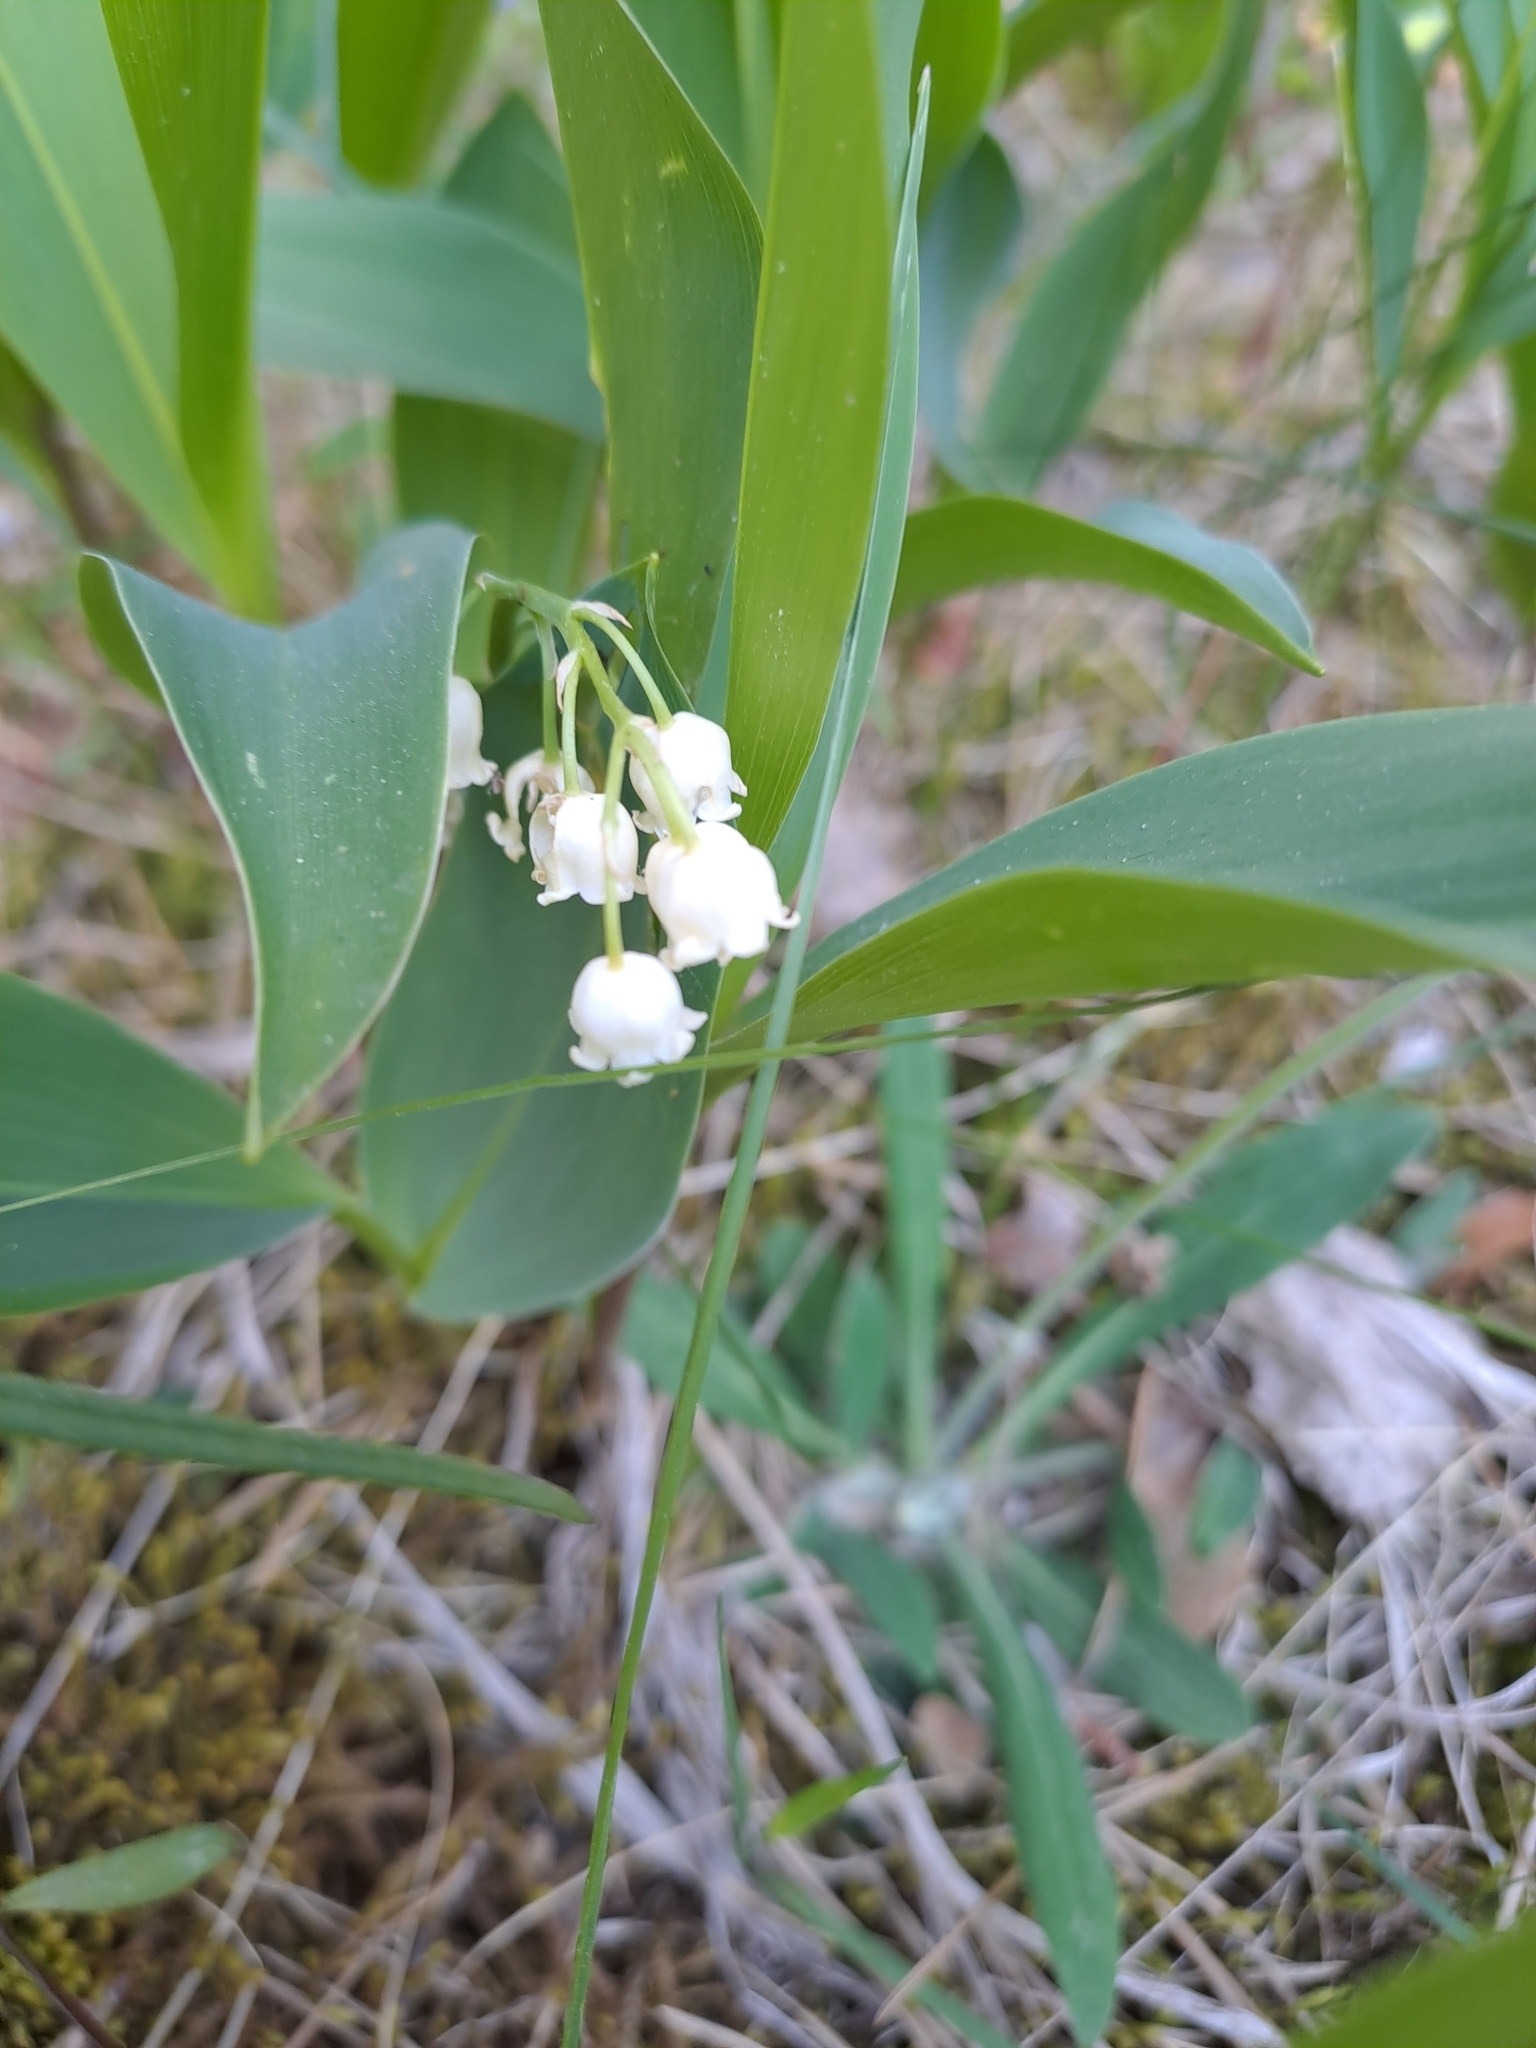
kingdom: Plantae
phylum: Tracheophyta
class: Liliopsida
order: Asparagales
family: Asparagaceae
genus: Convallaria
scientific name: Convallaria majalis
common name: Lily-of-the-valley
